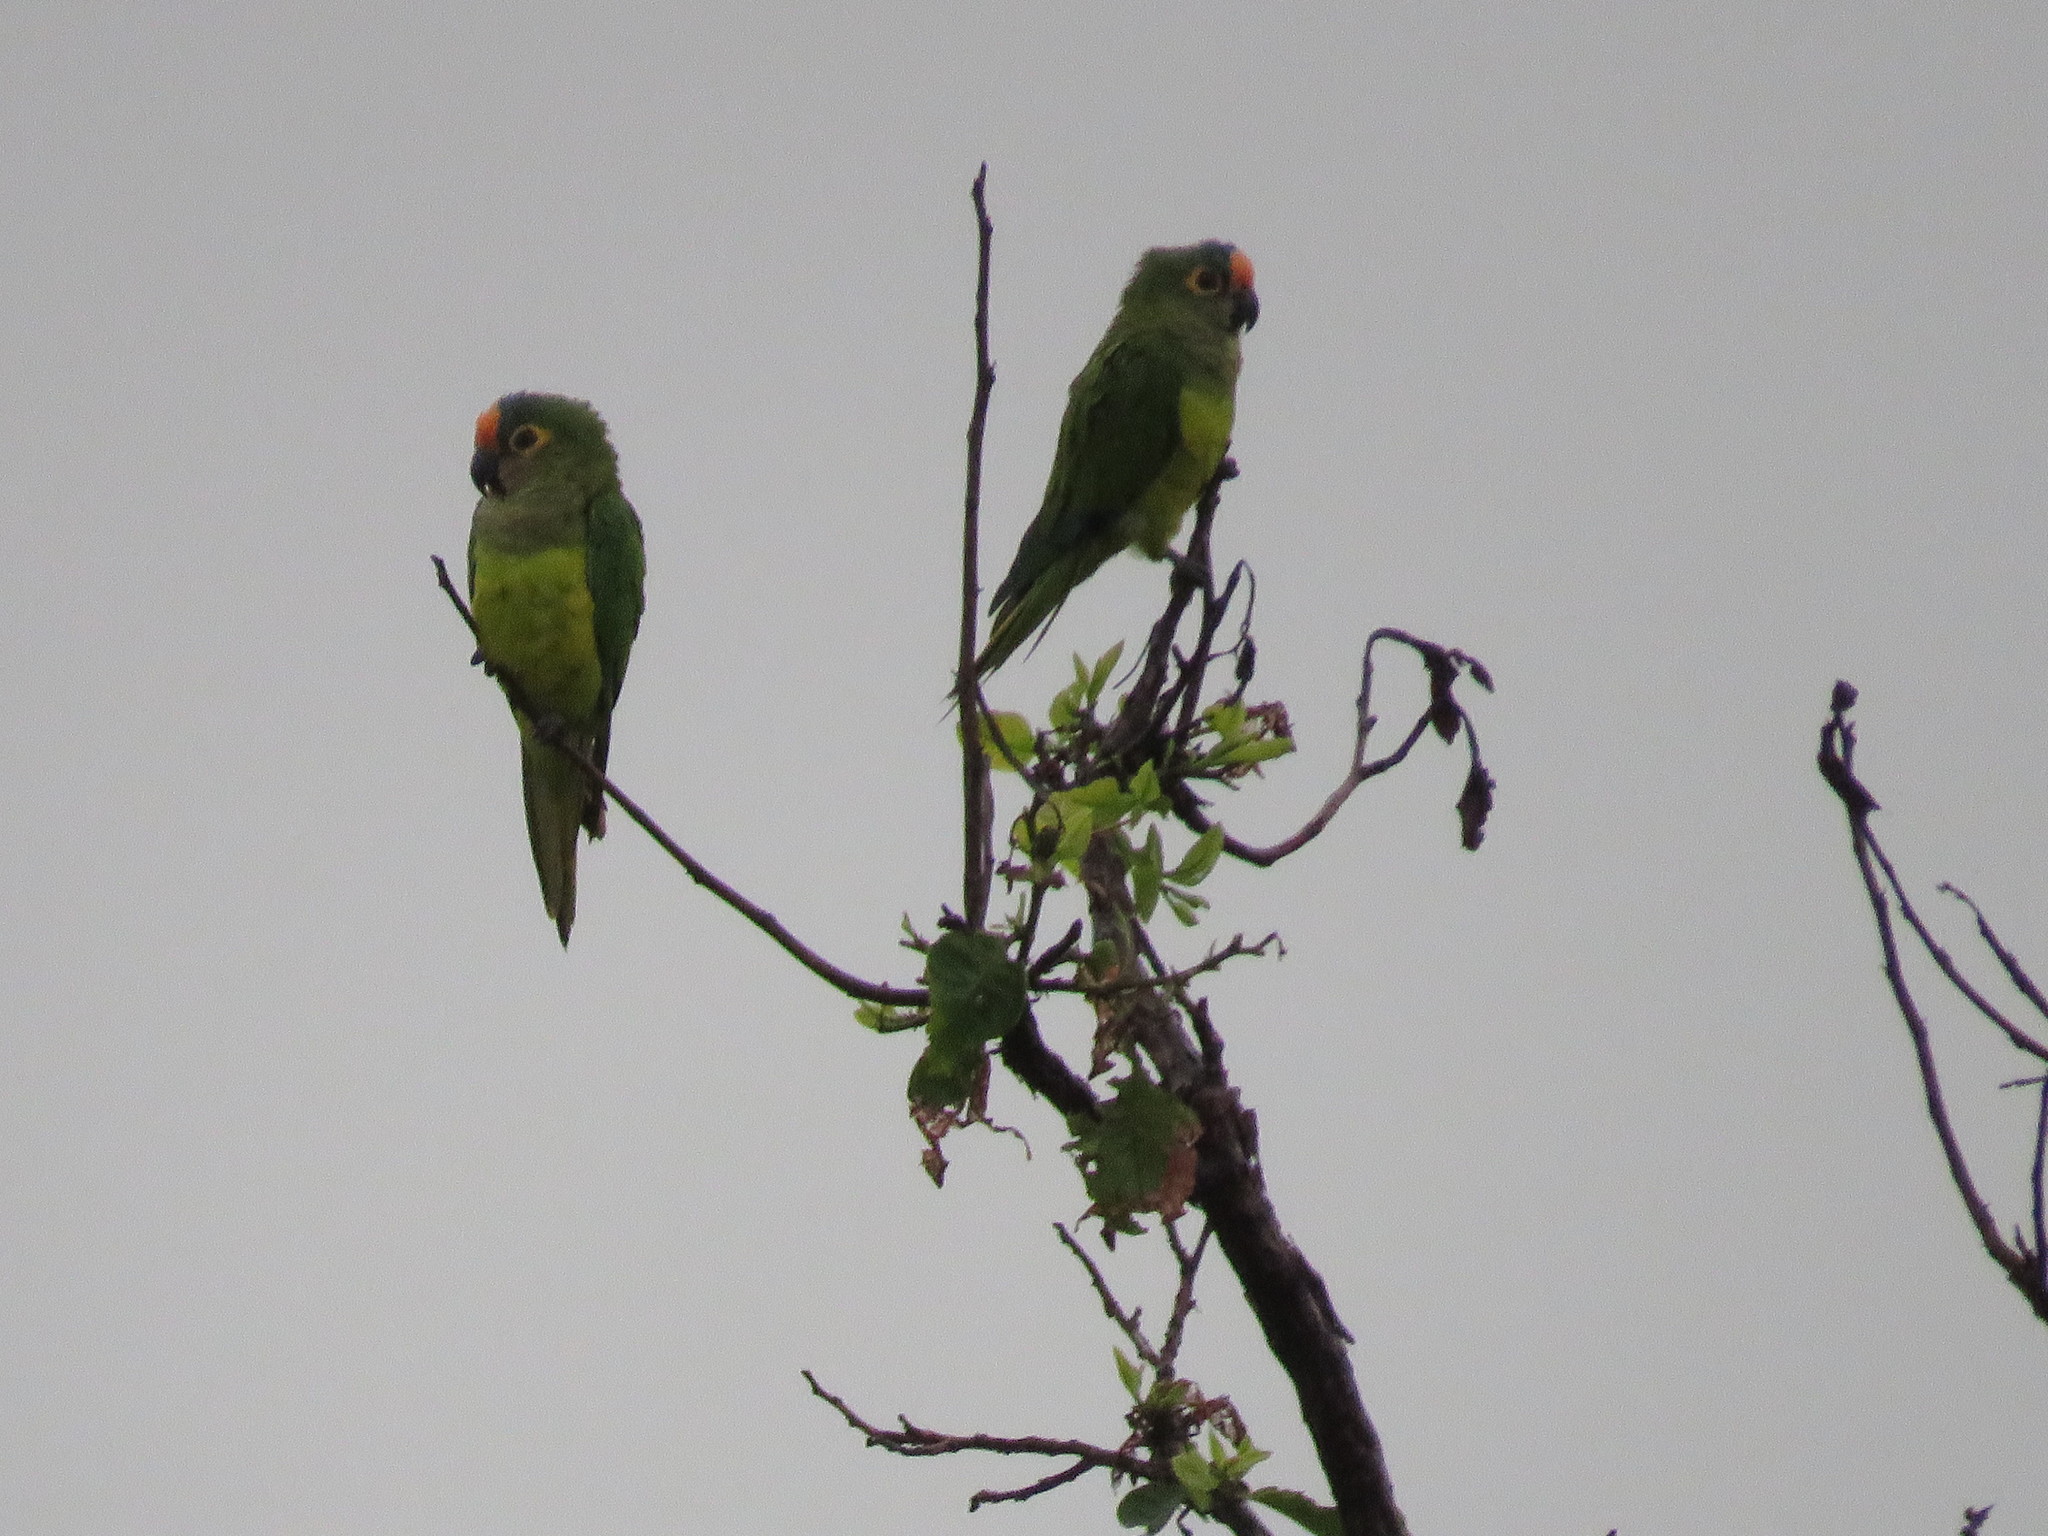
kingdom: Animalia
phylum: Chordata
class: Aves
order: Psittaciformes
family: Psittacidae
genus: Aratinga
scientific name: Aratinga aurea
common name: Peach-fronted parakeet
